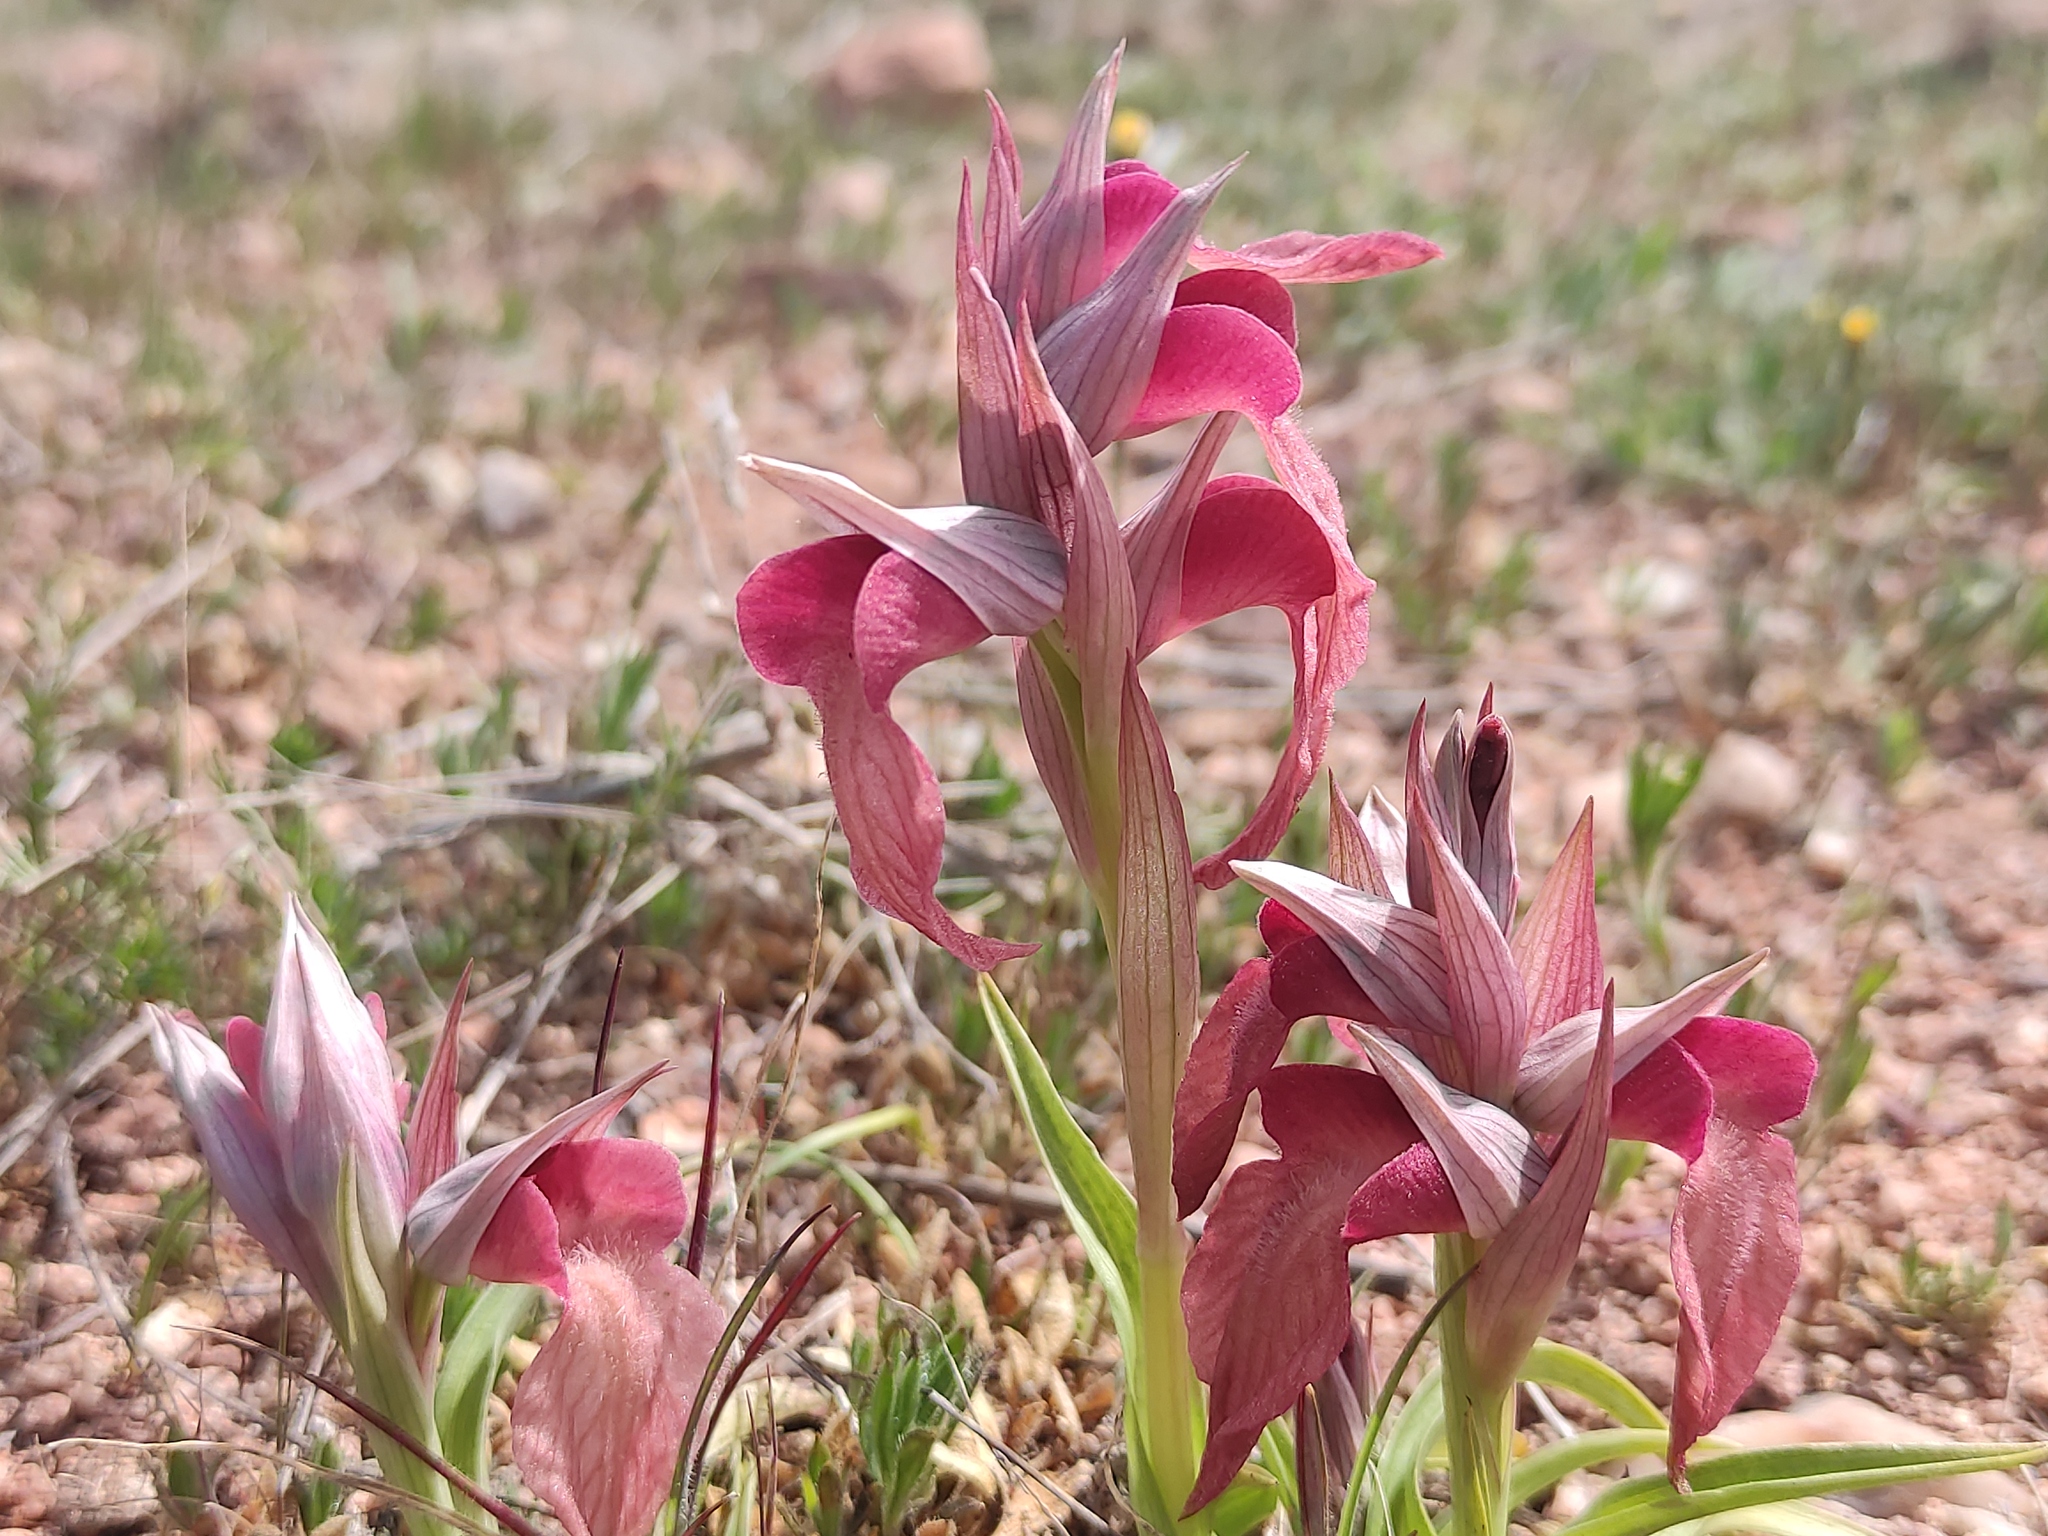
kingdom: Plantae
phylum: Tracheophyta
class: Liliopsida
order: Asparagales
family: Orchidaceae
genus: Serapias
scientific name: Serapias neglecta
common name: Neglected serapias
